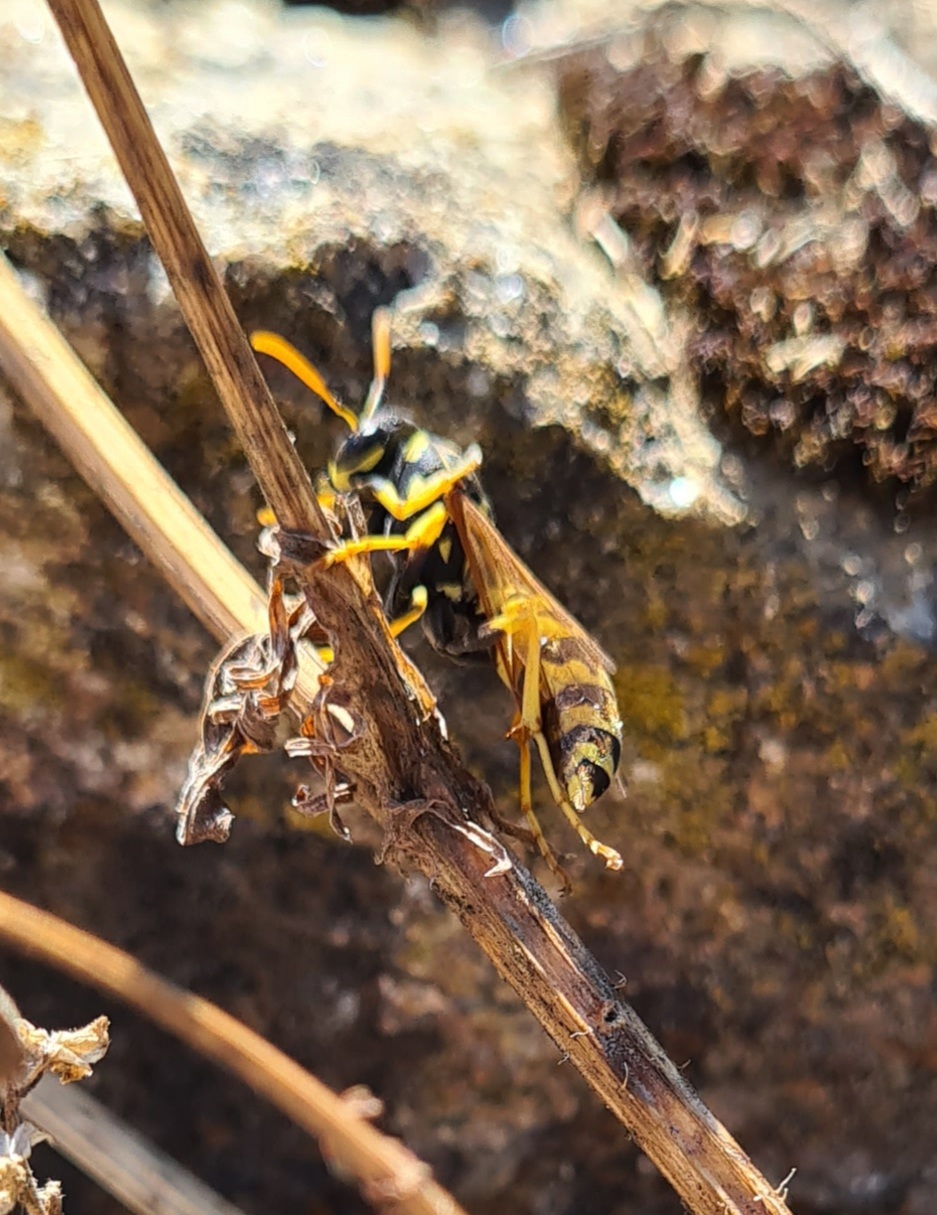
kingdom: Animalia
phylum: Arthropoda
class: Insecta
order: Hymenoptera
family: Eumenidae
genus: Polistes
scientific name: Polistes dominula
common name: Paper wasp
